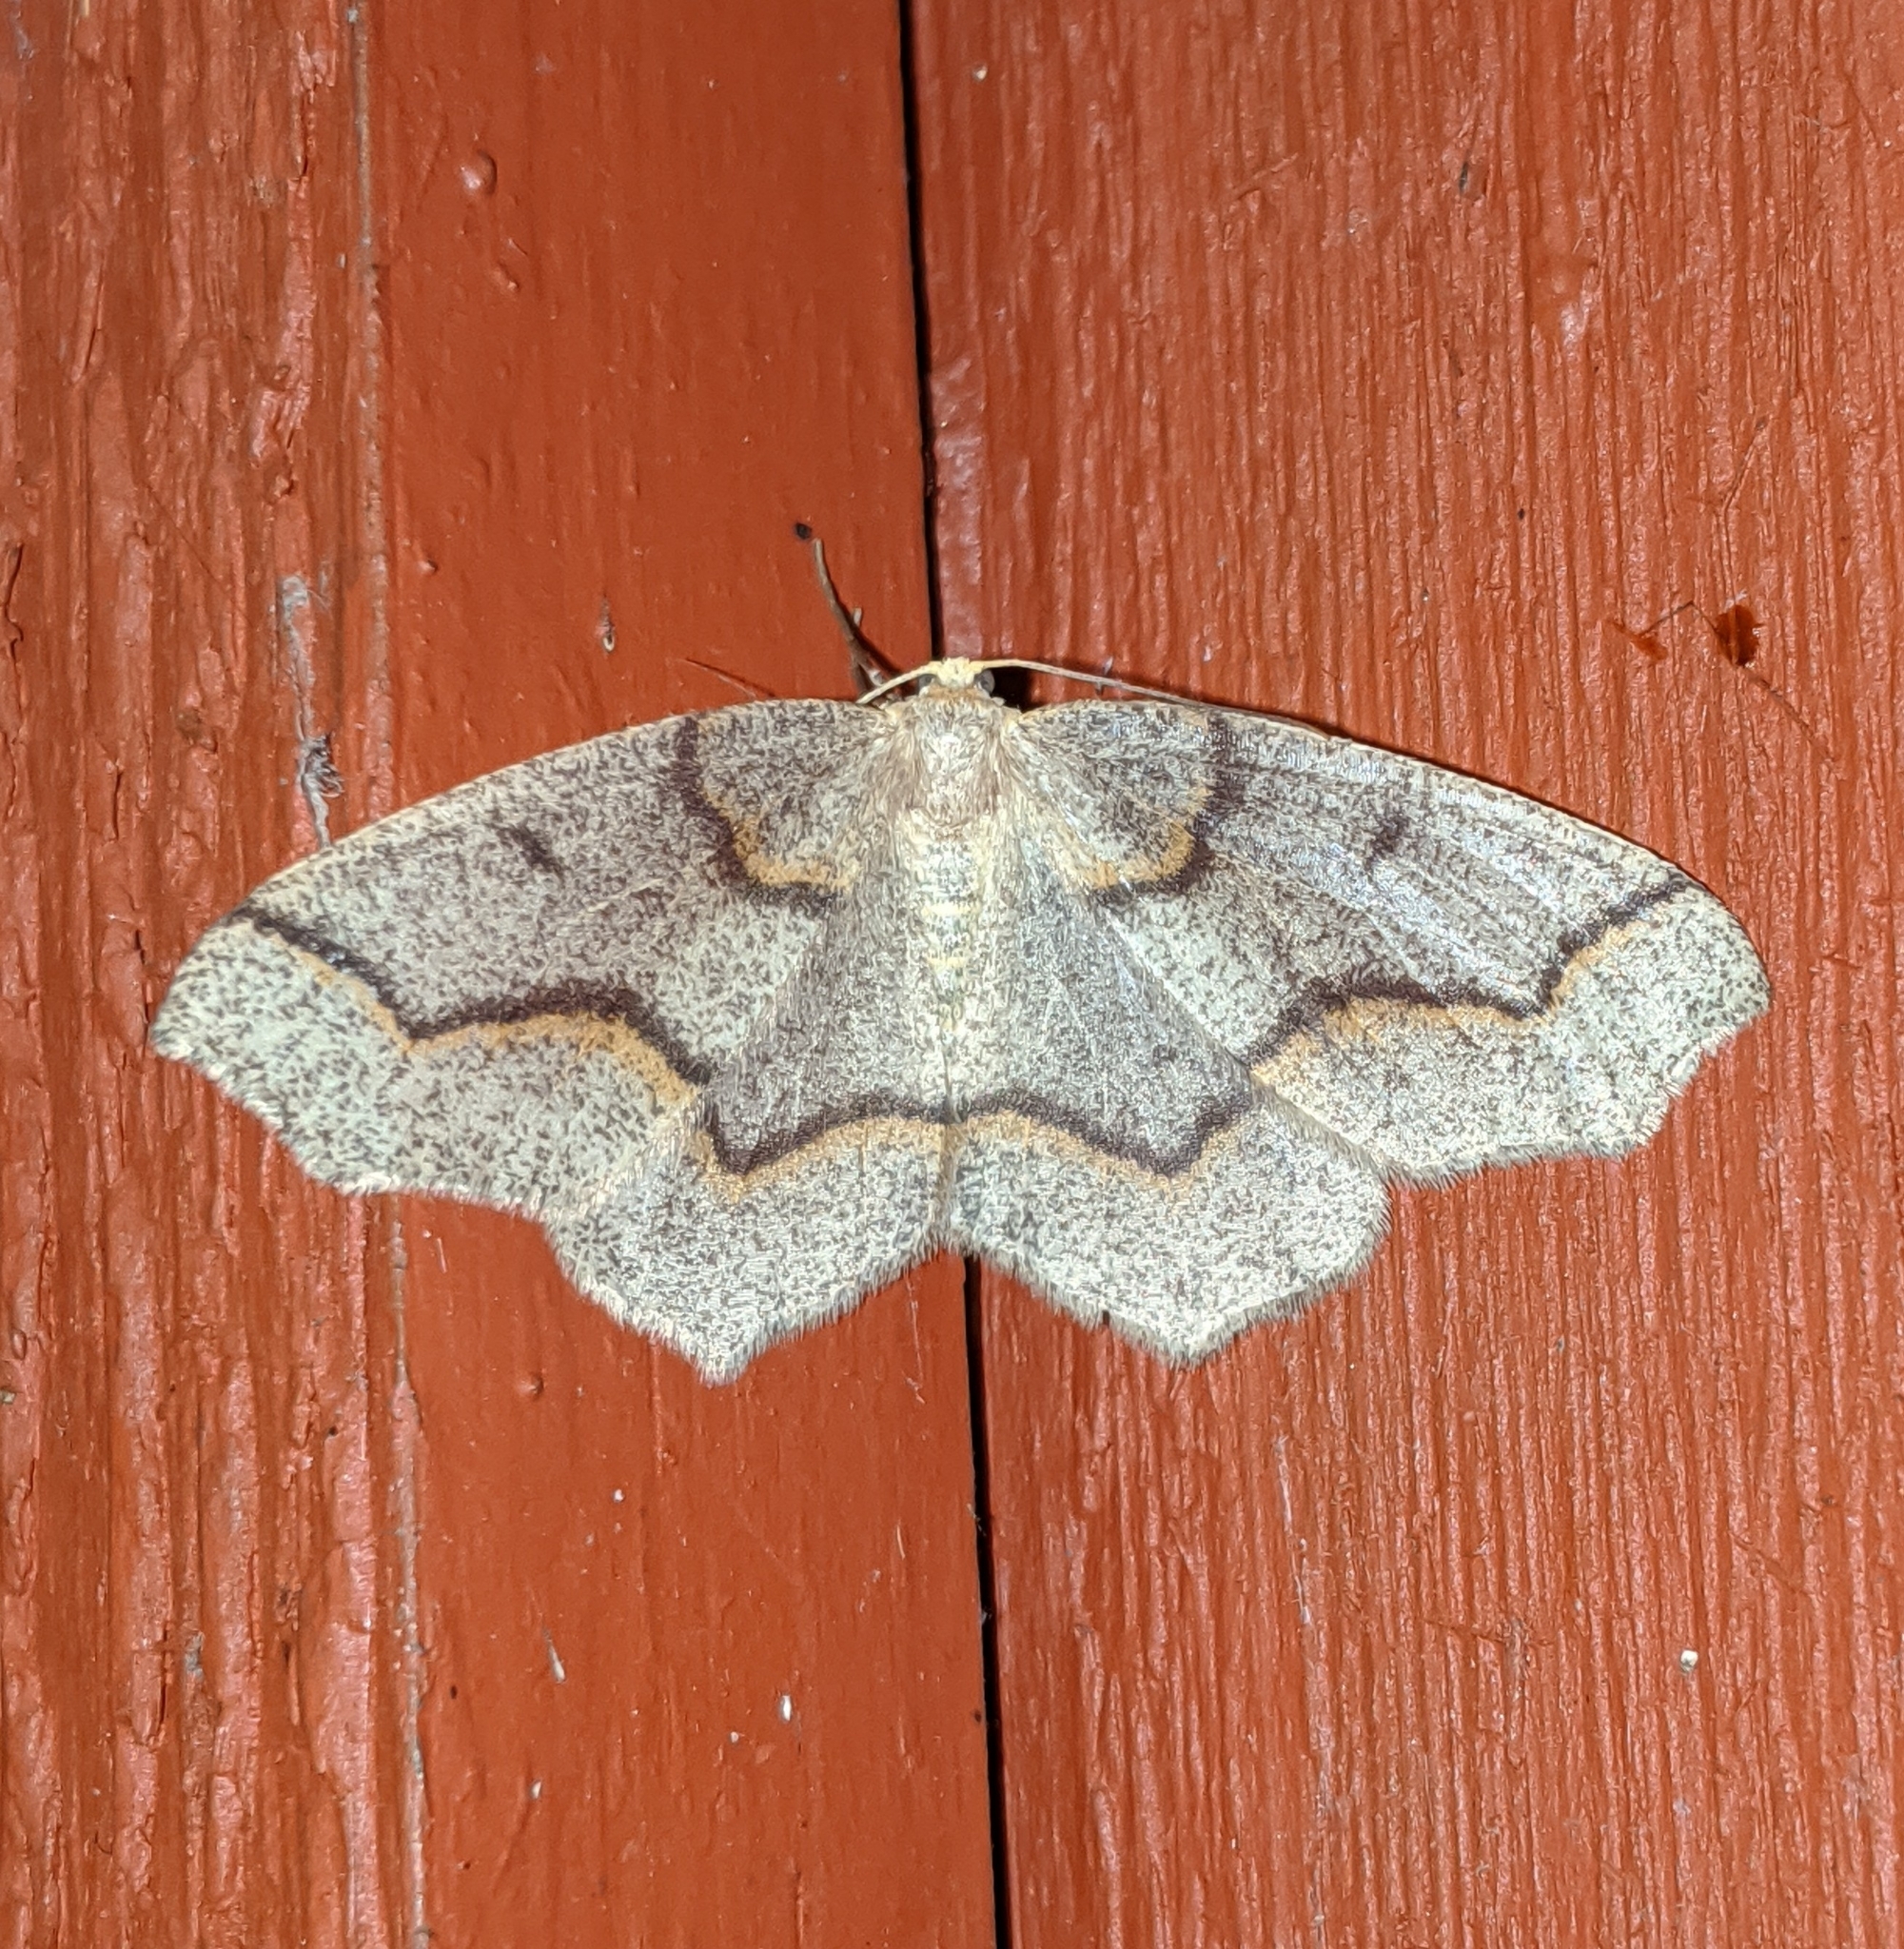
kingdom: Animalia
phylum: Arthropoda
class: Insecta
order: Lepidoptera
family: Geometridae
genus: Lambdina
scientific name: Lambdina fiscellaria
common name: Hemlock looper
